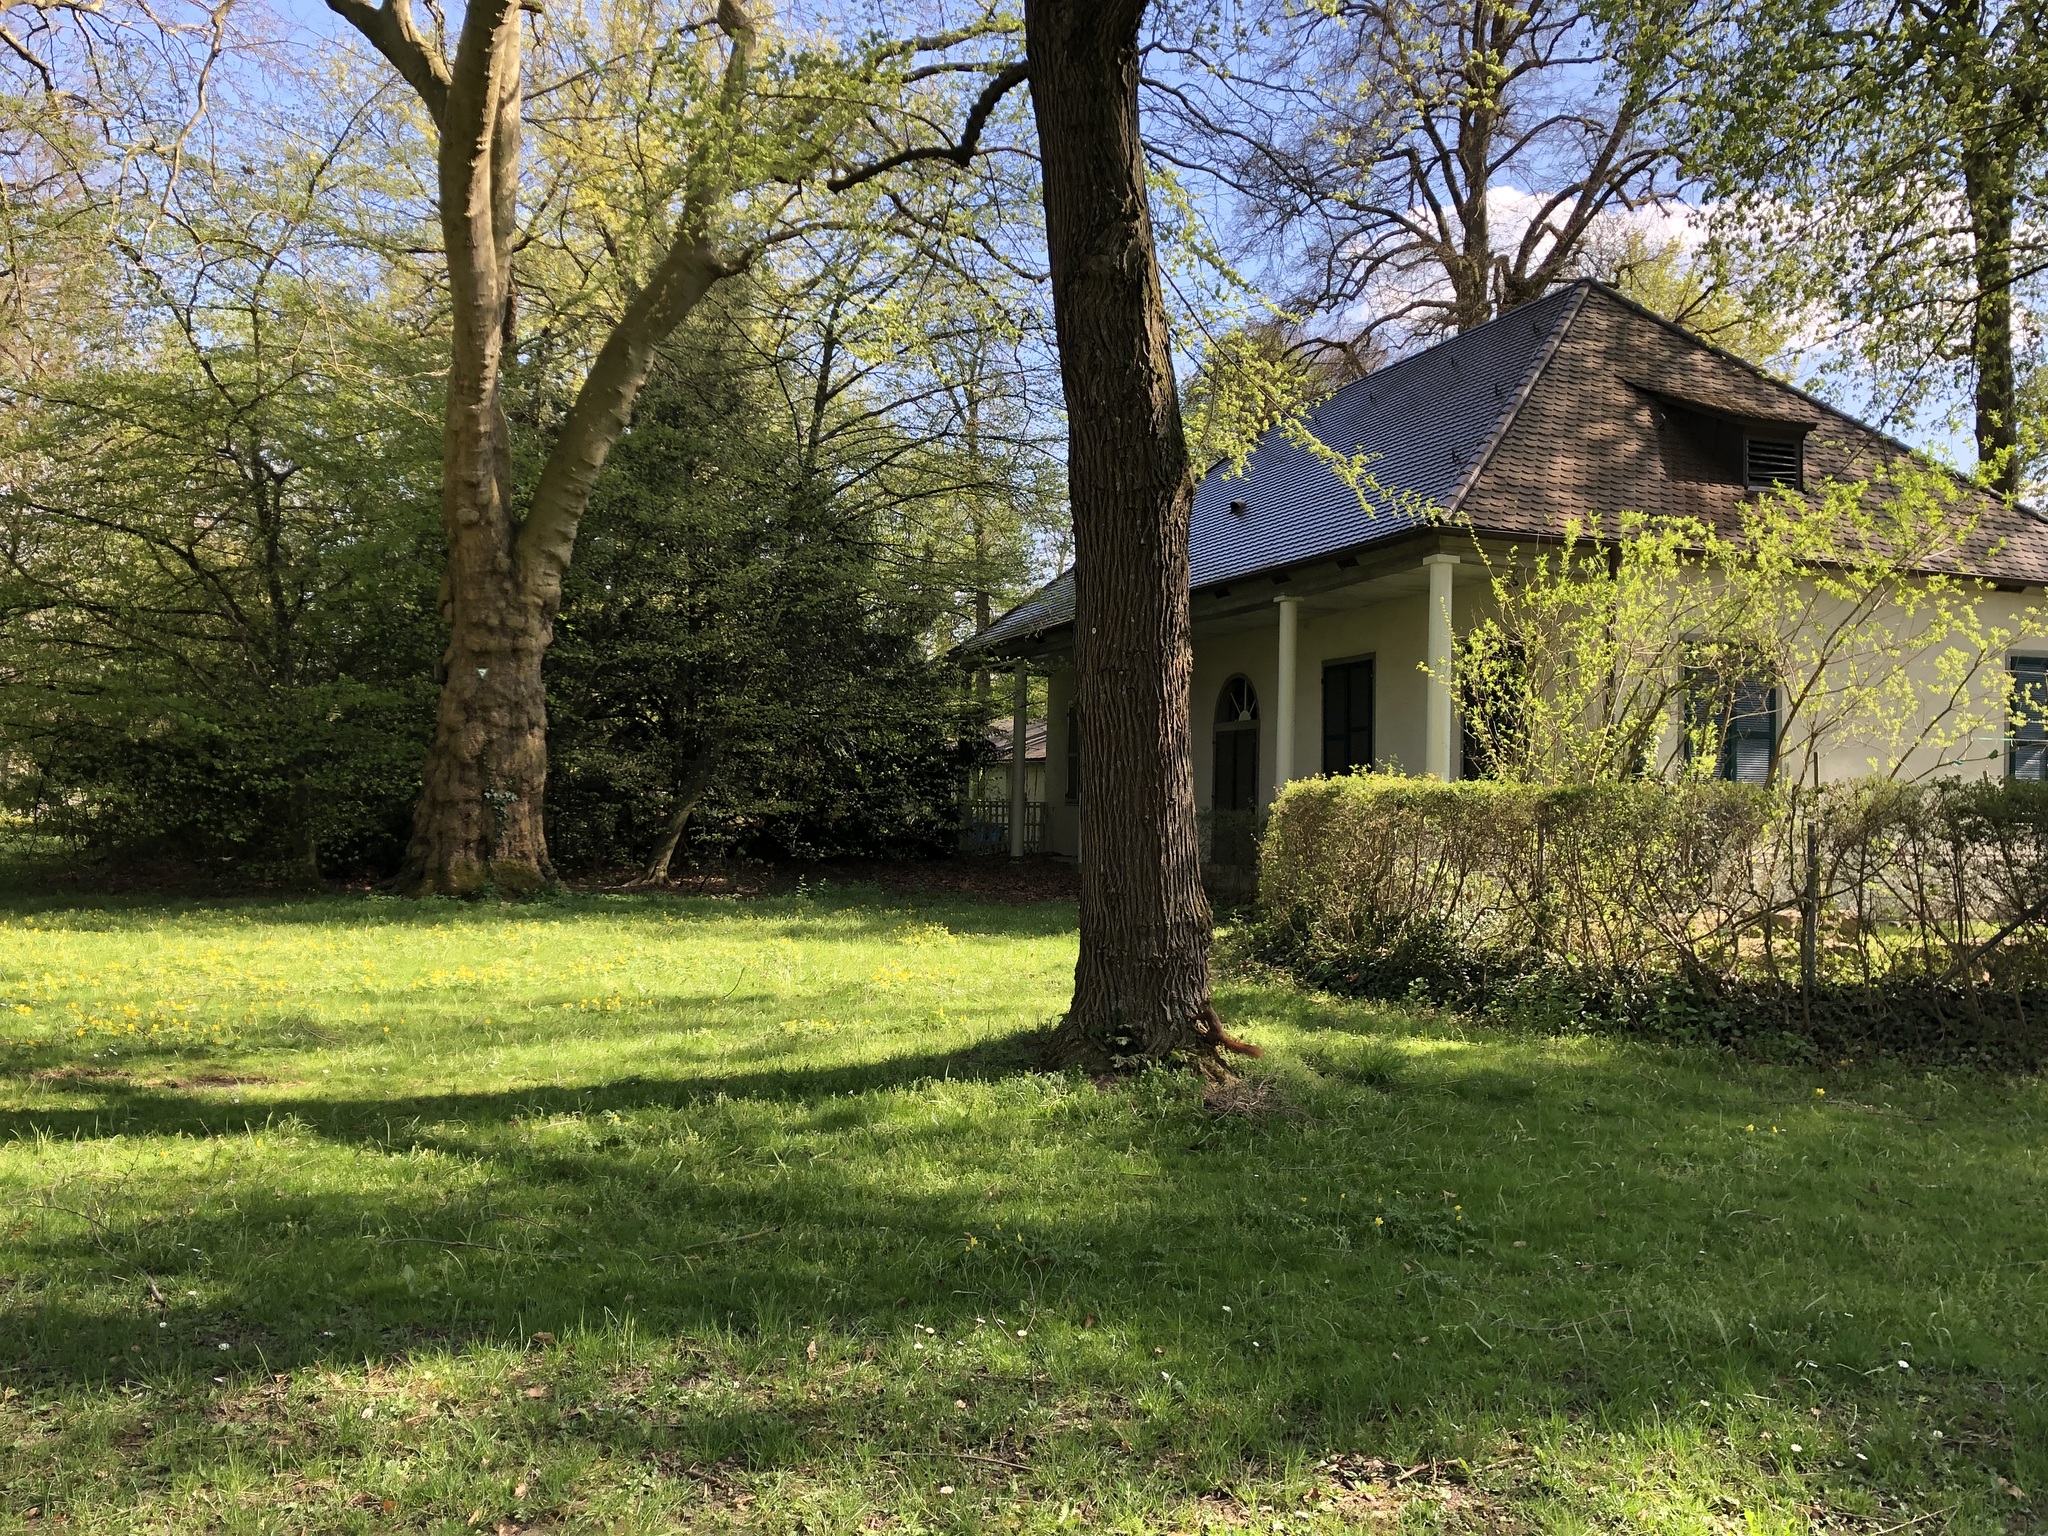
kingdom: Animalia
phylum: Chordata
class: Mammalia
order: Rodentia
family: Sciuridae
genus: Sciurus
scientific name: Sciurus vulgaris
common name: Eurasian red squirrel
